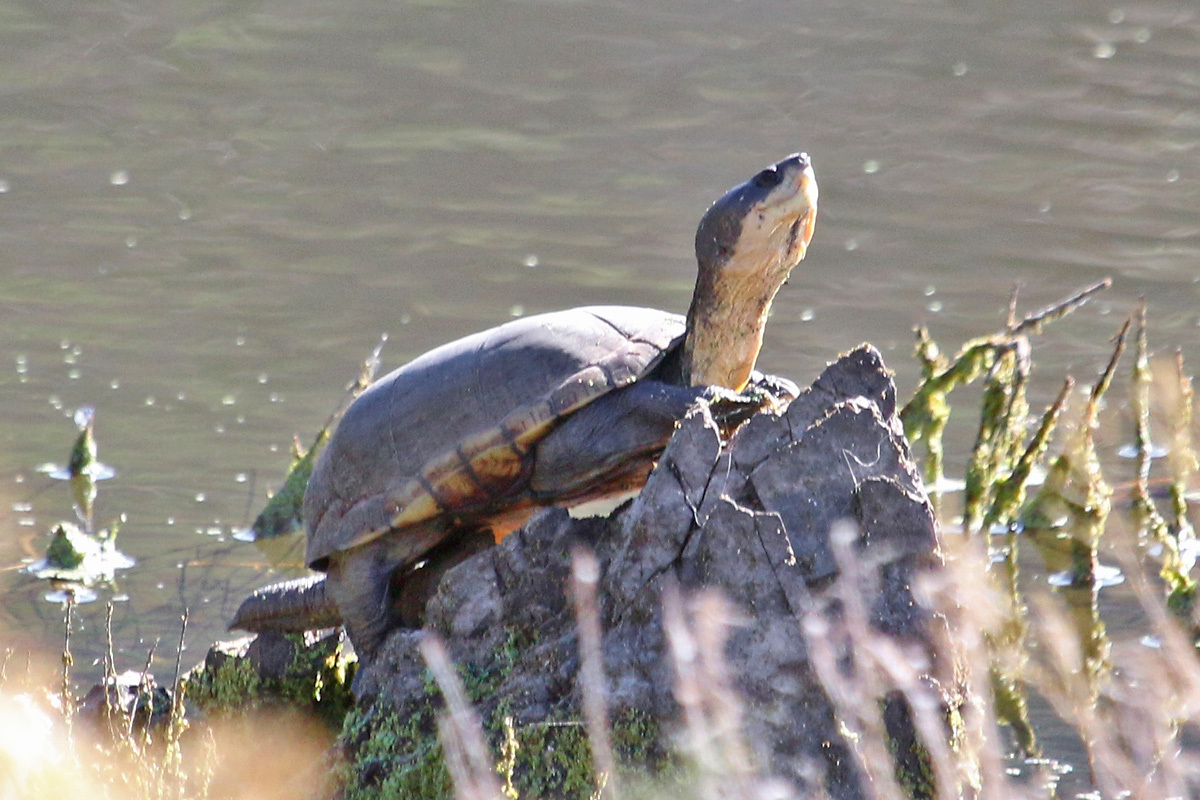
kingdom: Animalia
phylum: Chordata
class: Testudines
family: Kinosternidae
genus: Kinosternon
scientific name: Kinosternon arizonense
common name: Arizona mud turtle
